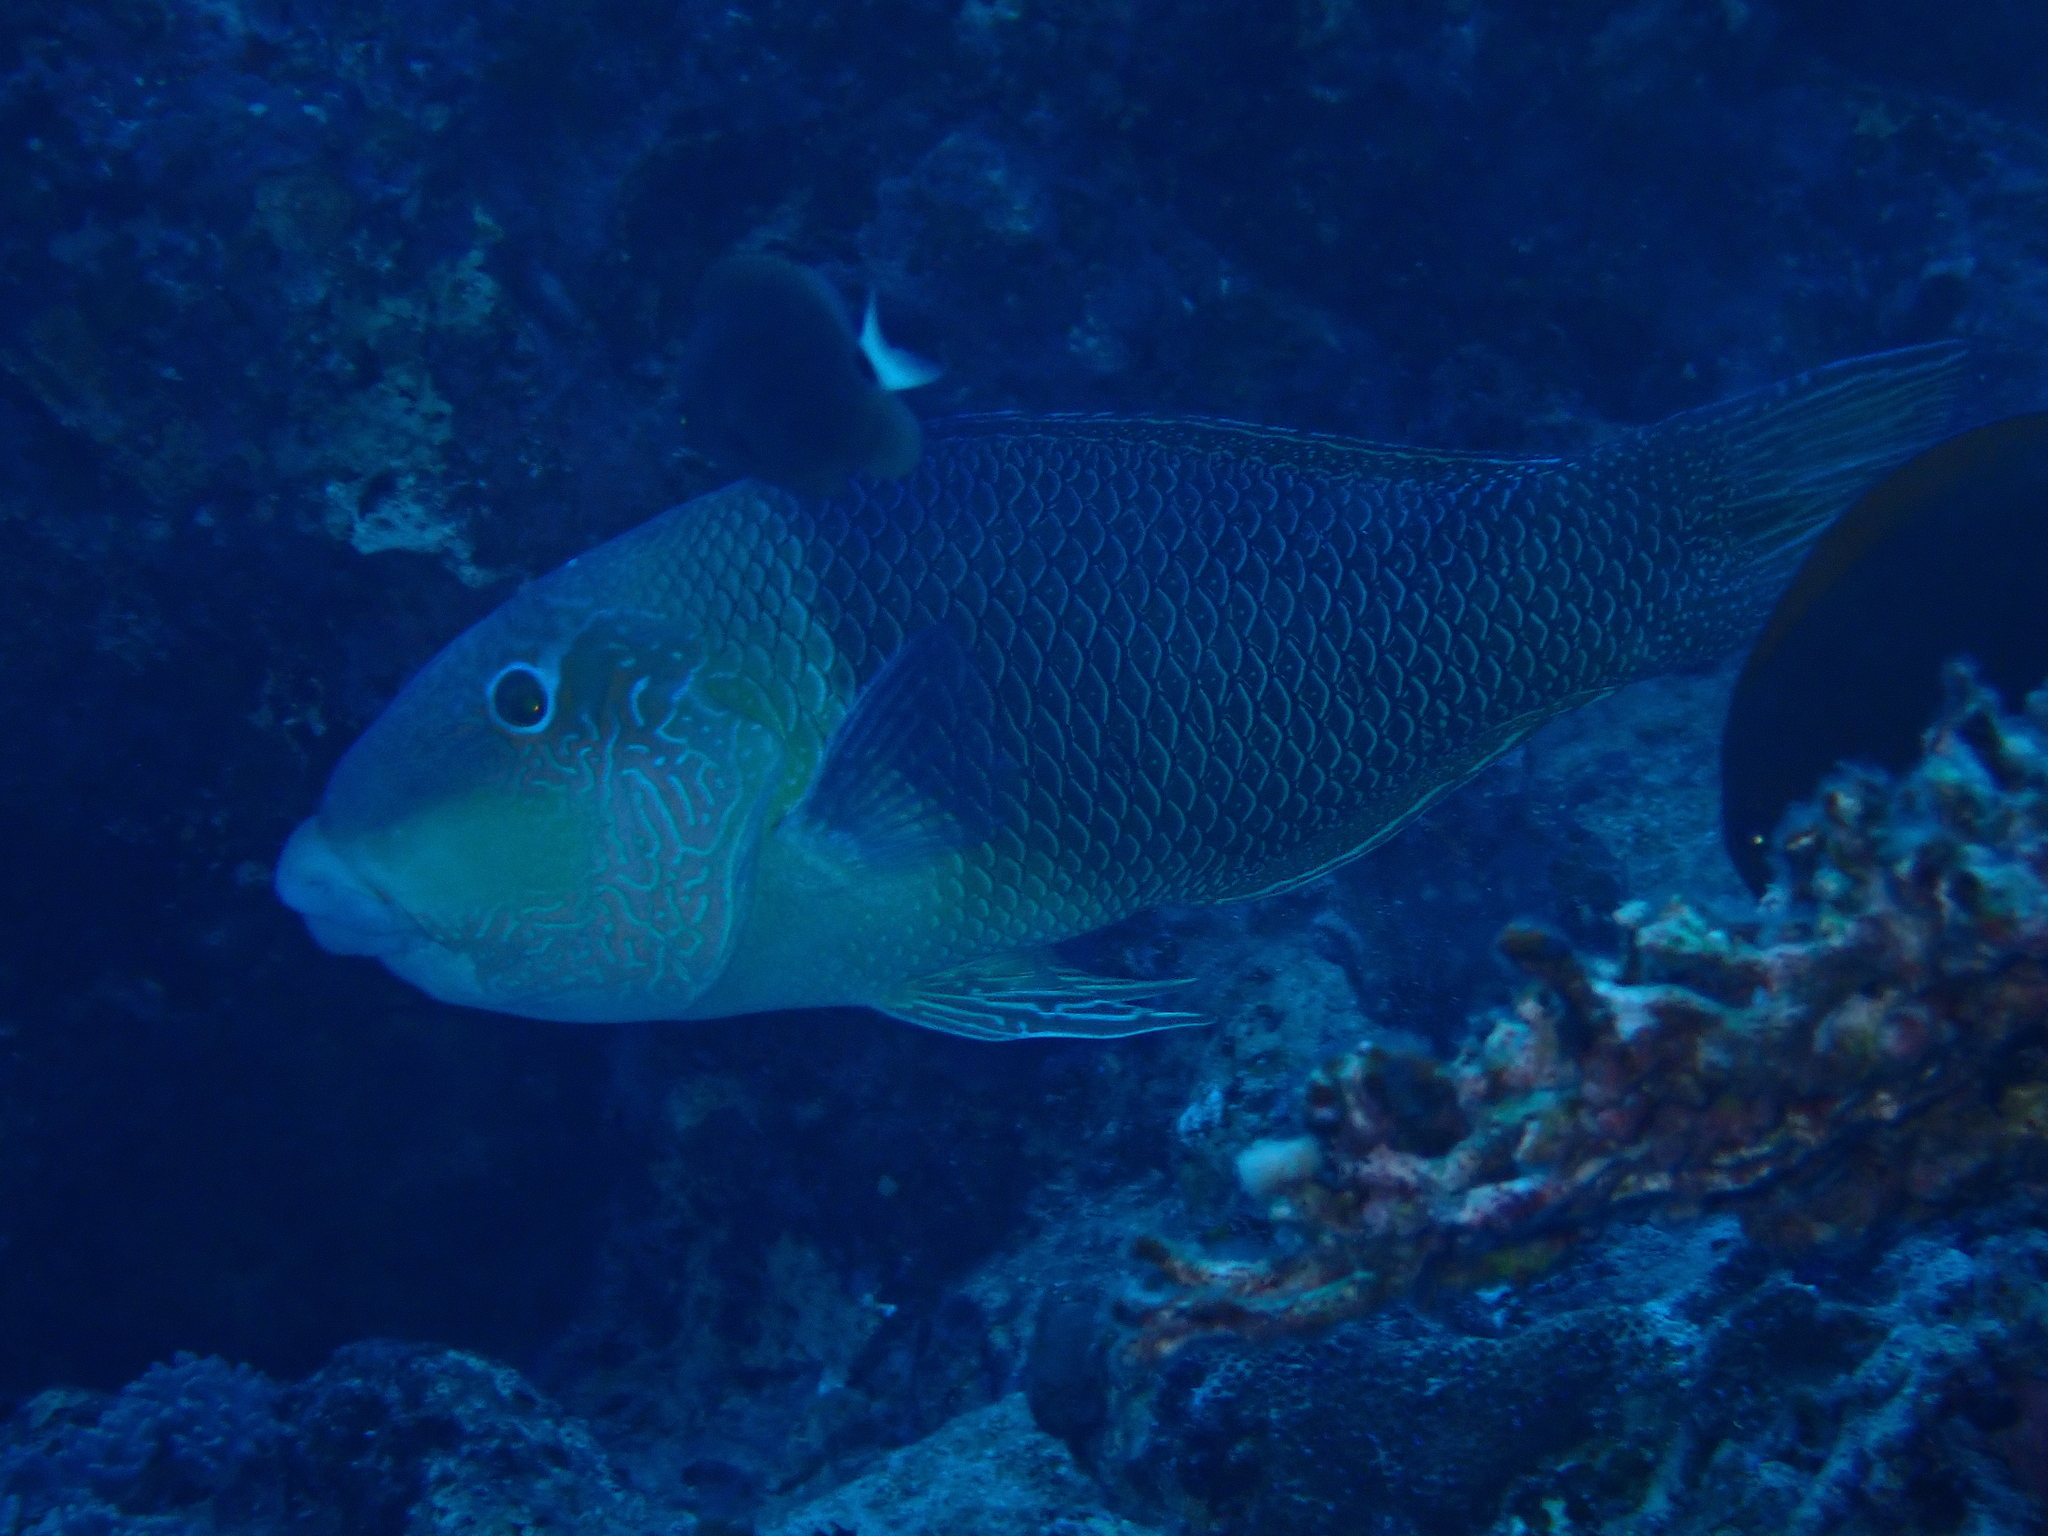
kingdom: Animalia
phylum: Chordata
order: Perciformes
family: Labridae
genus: Hemigymnus
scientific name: Hemigymnus melapterus
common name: Blackeye thicklip
